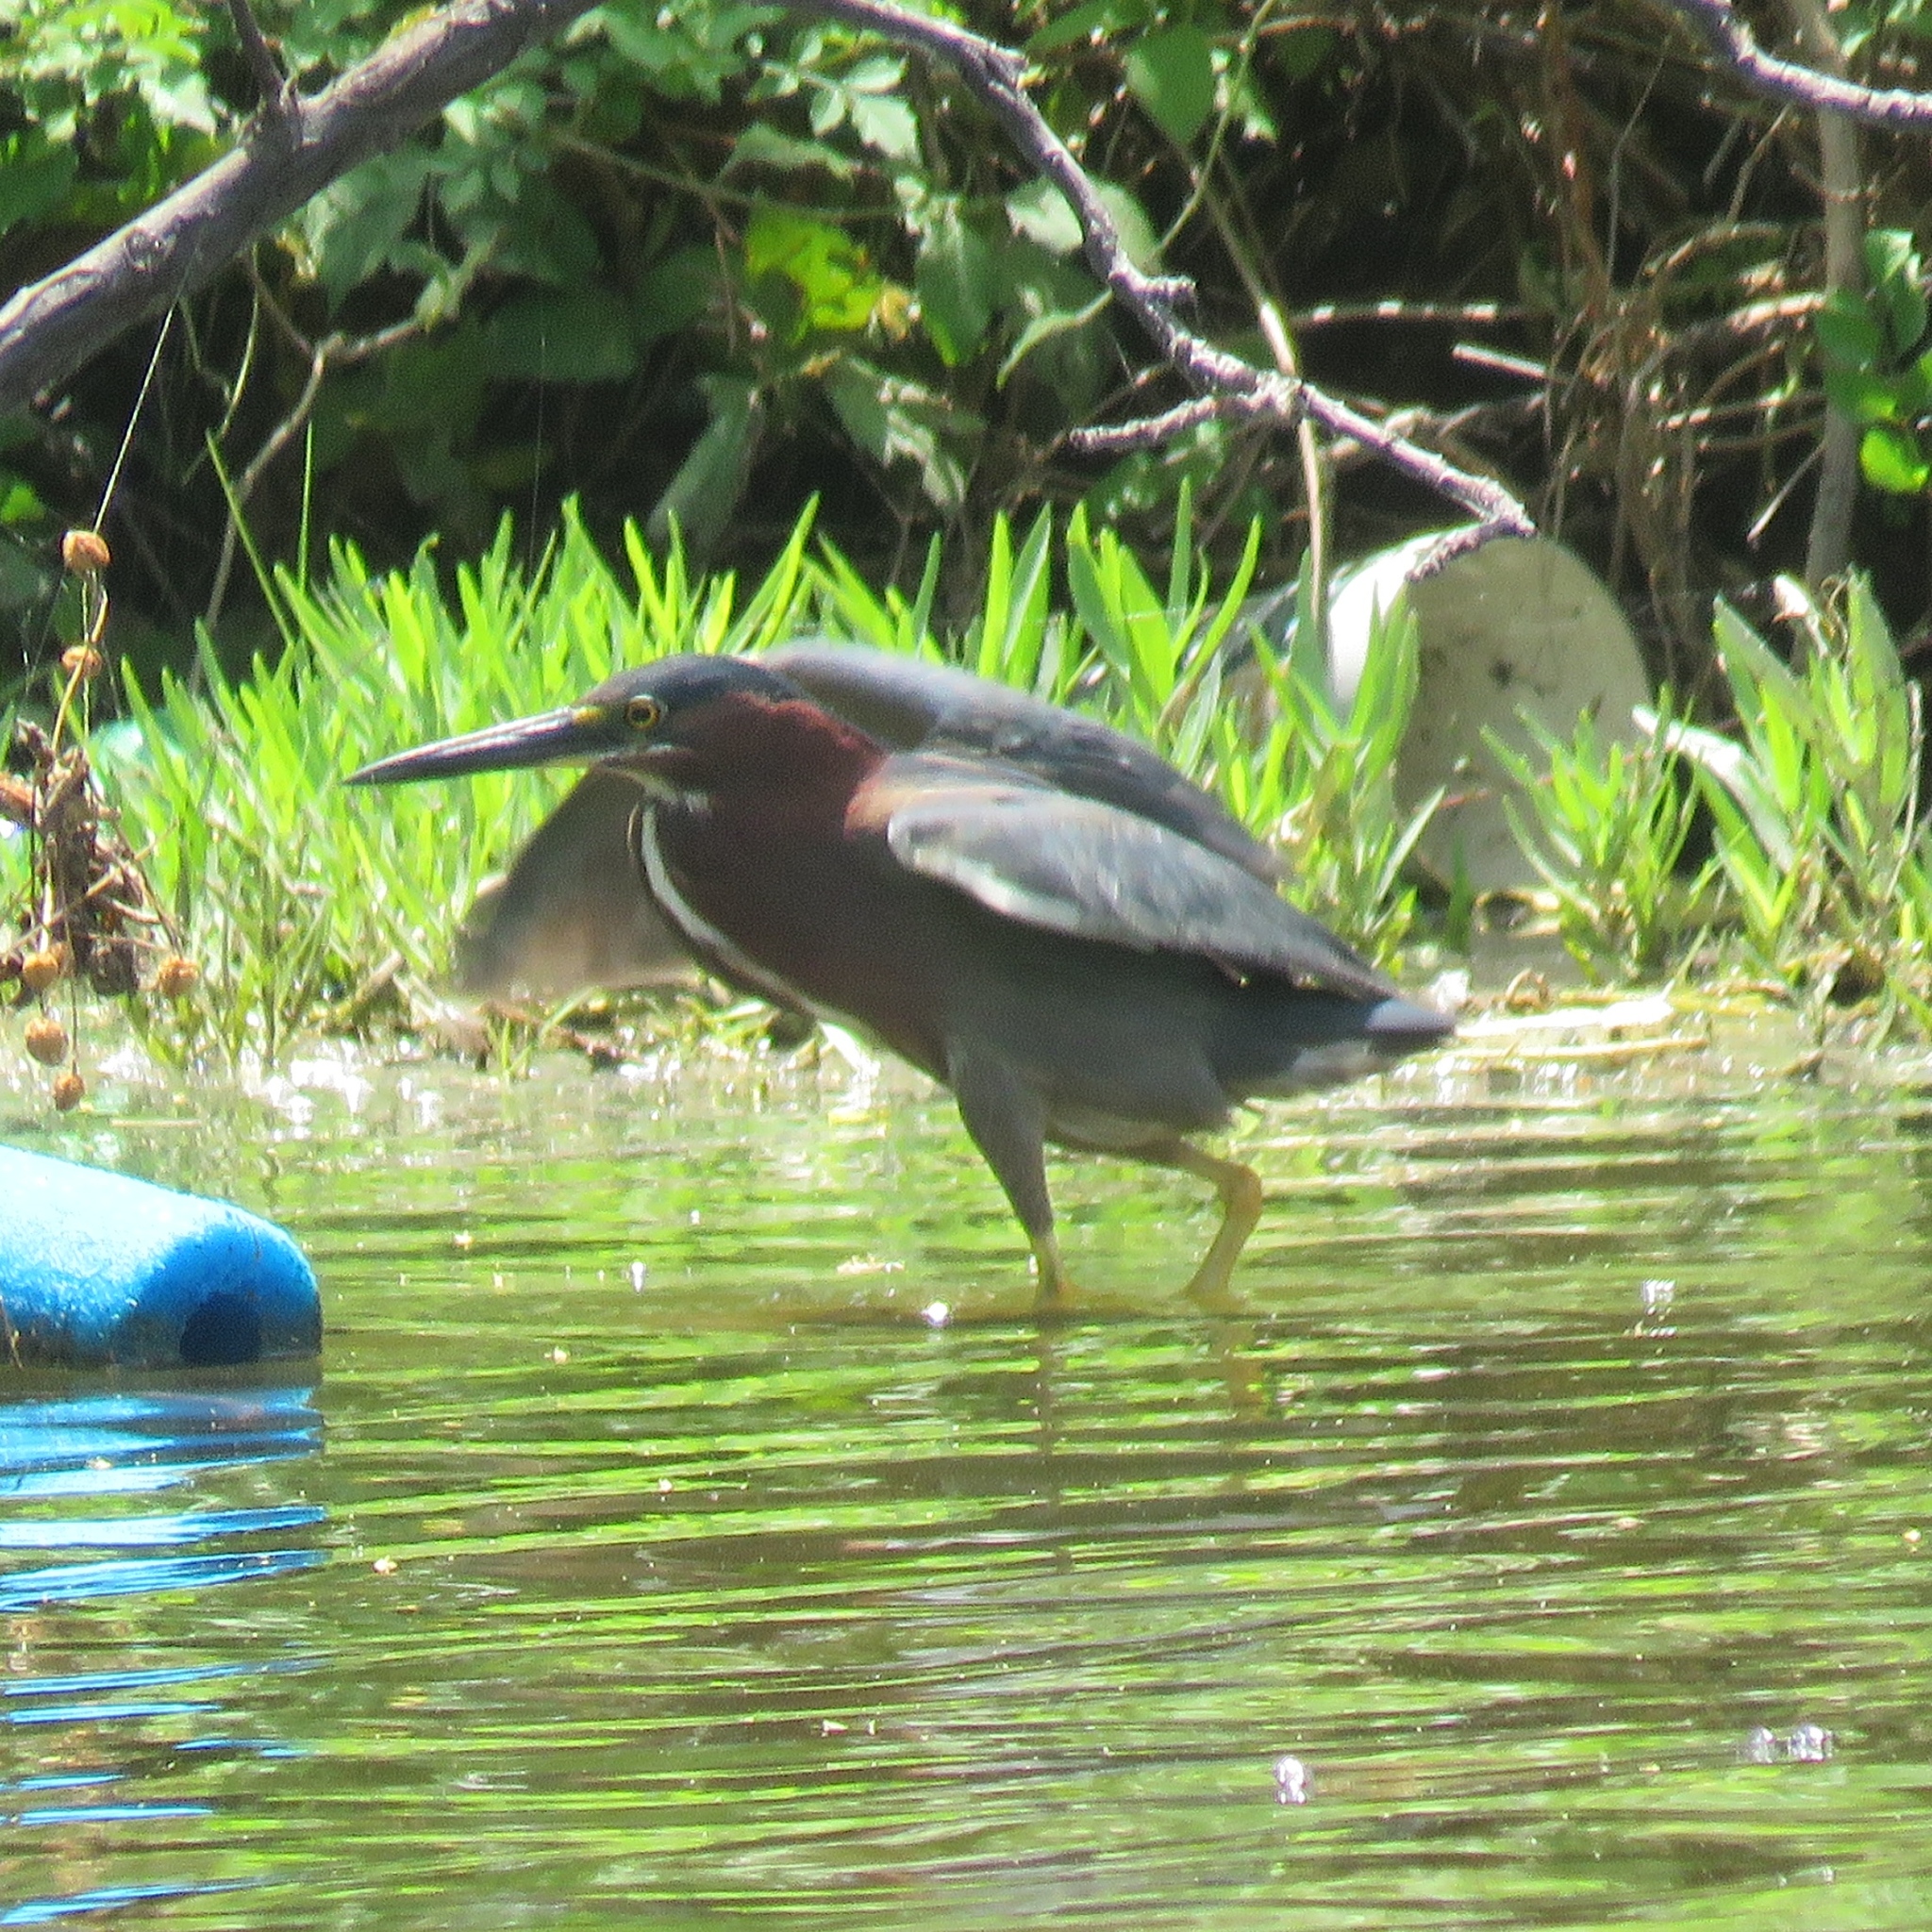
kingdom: Animalia
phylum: Chordata
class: Aves
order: Pelecaniformes
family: Ardeidae
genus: Butorides
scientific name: Butorides virescens
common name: Green heron
